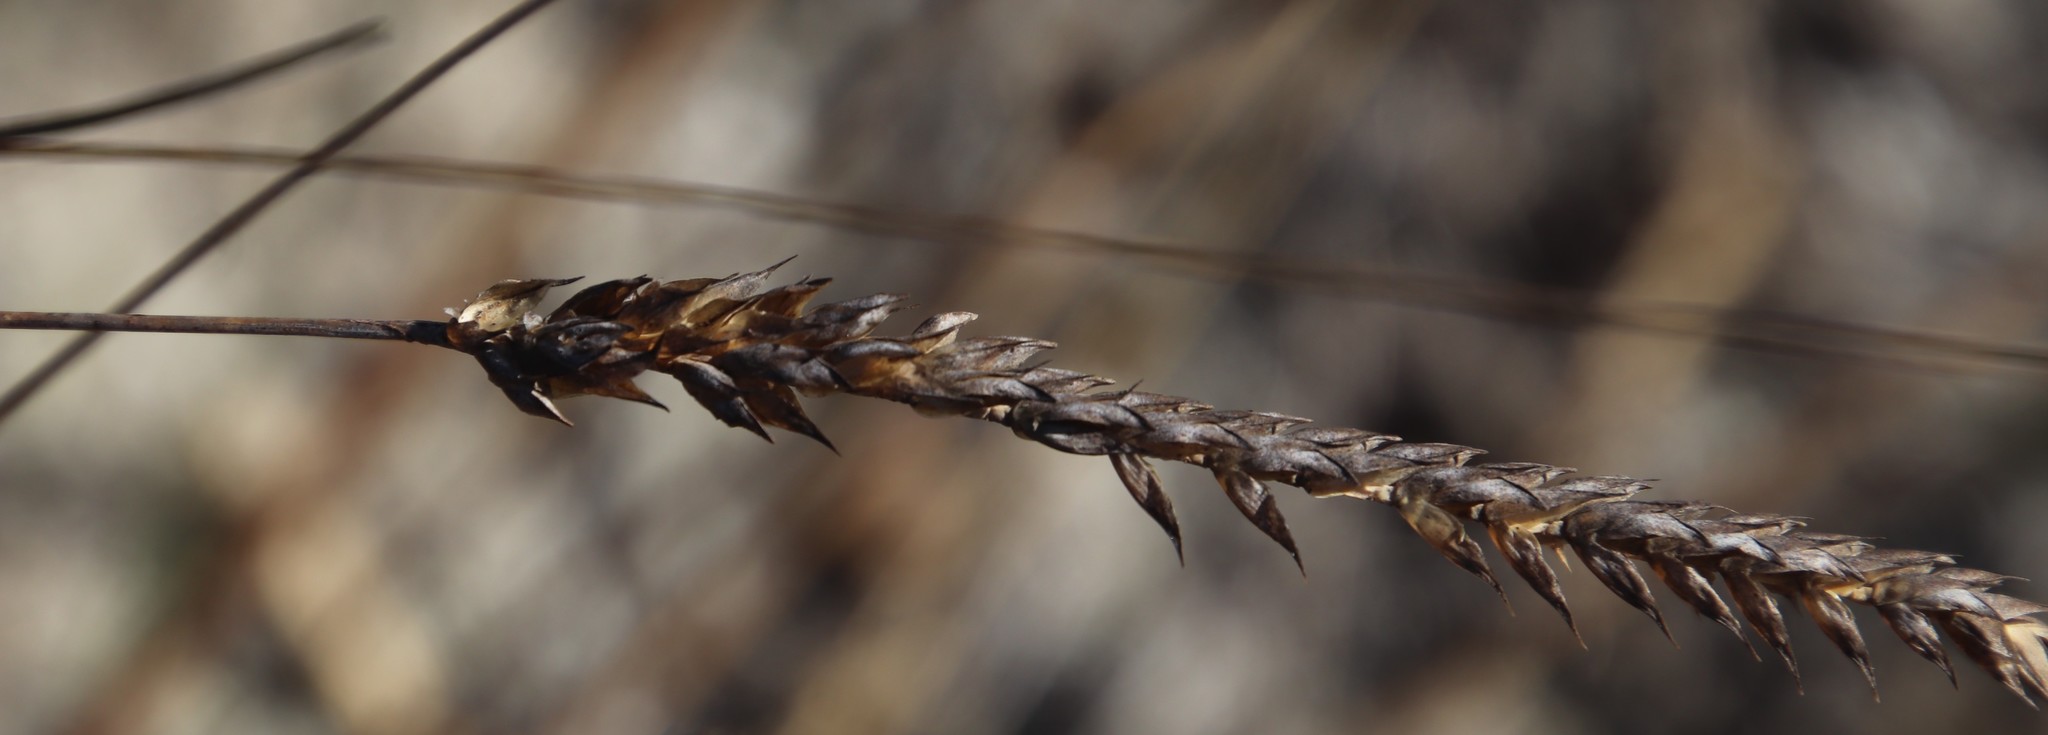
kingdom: Plantae
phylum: Tracheophyta
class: Liliopsida
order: Poales
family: Poaceae
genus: Tribolium
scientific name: Tribolium uniolae
